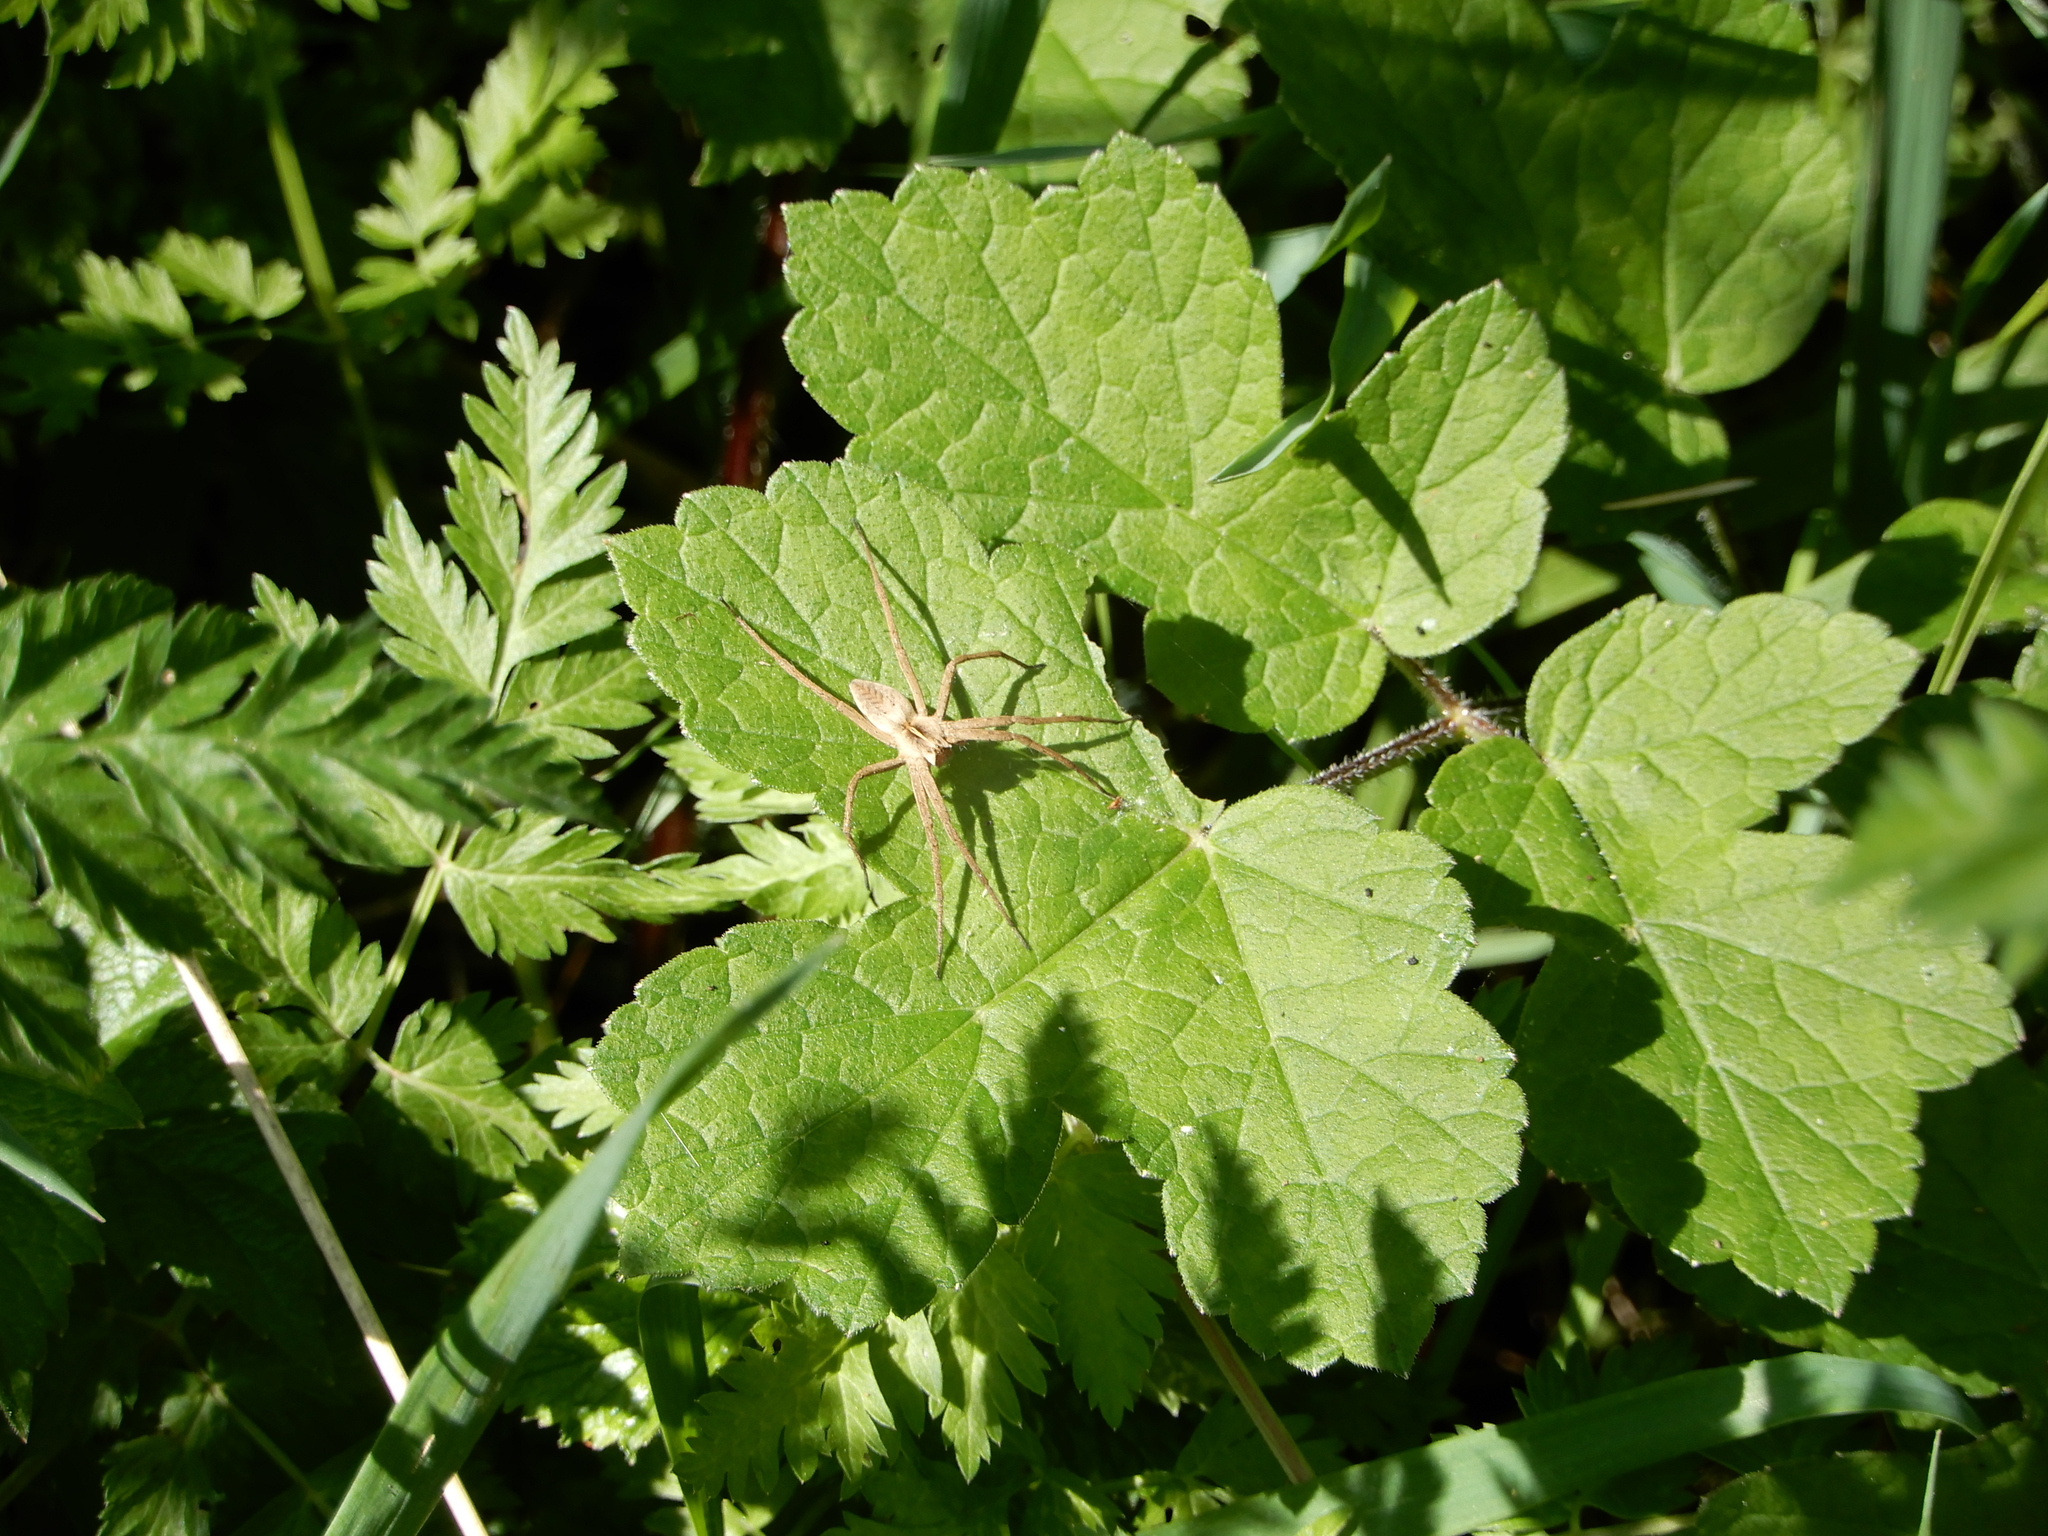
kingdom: Animalia
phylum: Arthropoda
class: Arachnida
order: Araneae
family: Pisauridae
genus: Pisaura
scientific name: Pisaura mirabilis
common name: Tent spider
